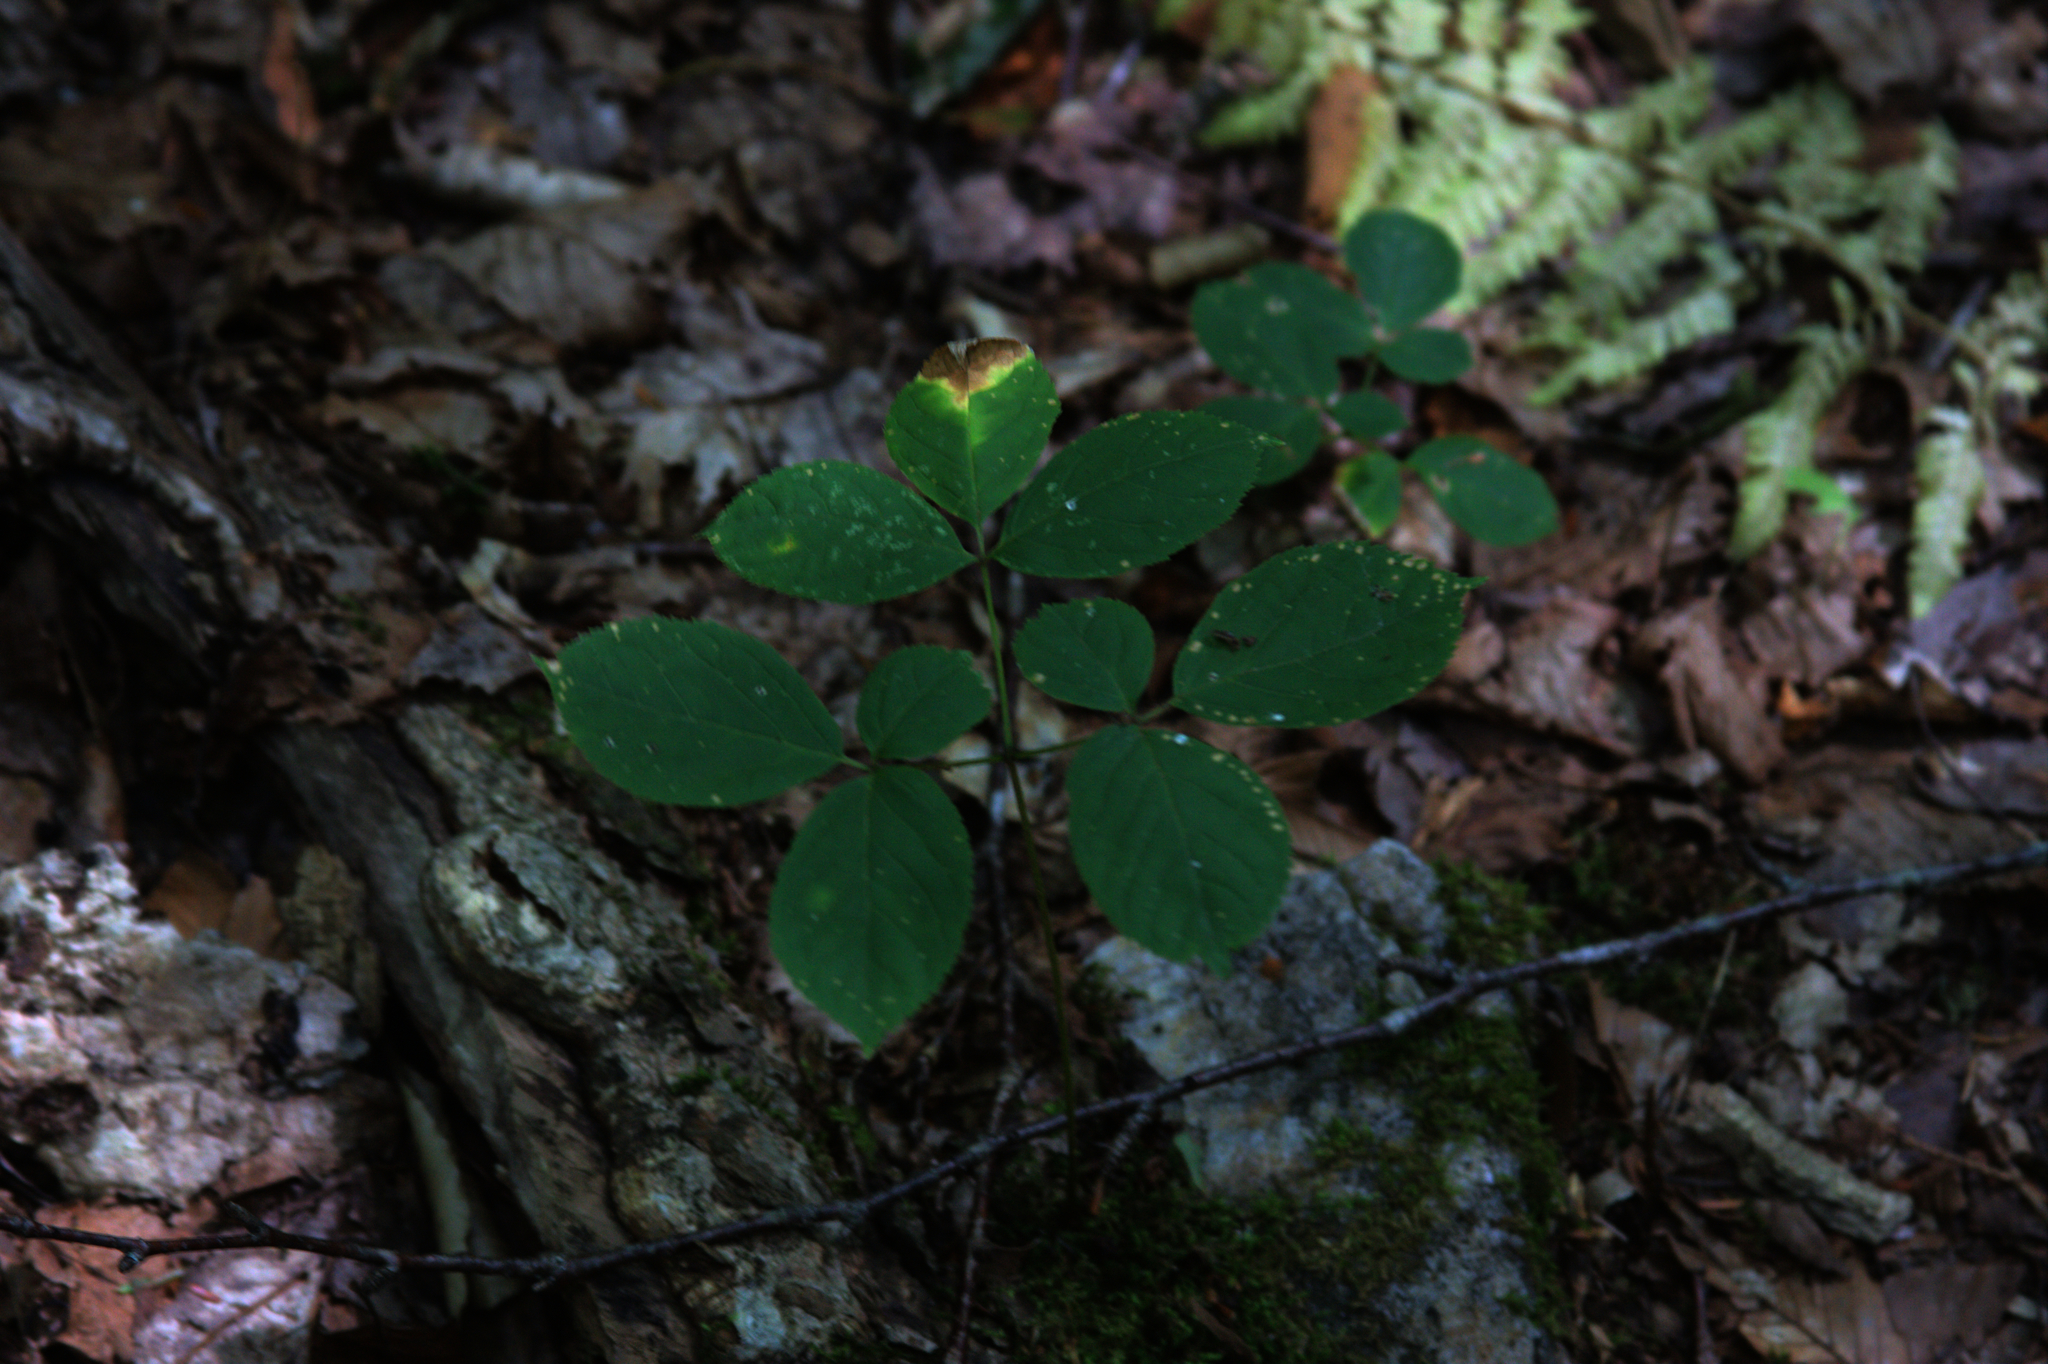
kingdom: Plantae
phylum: Tracheophyta
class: Magnoliopsida
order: Apiales
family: Araliaceae
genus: Aralia
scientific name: Aralia nudicaulis
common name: Wild sarsaparilla
